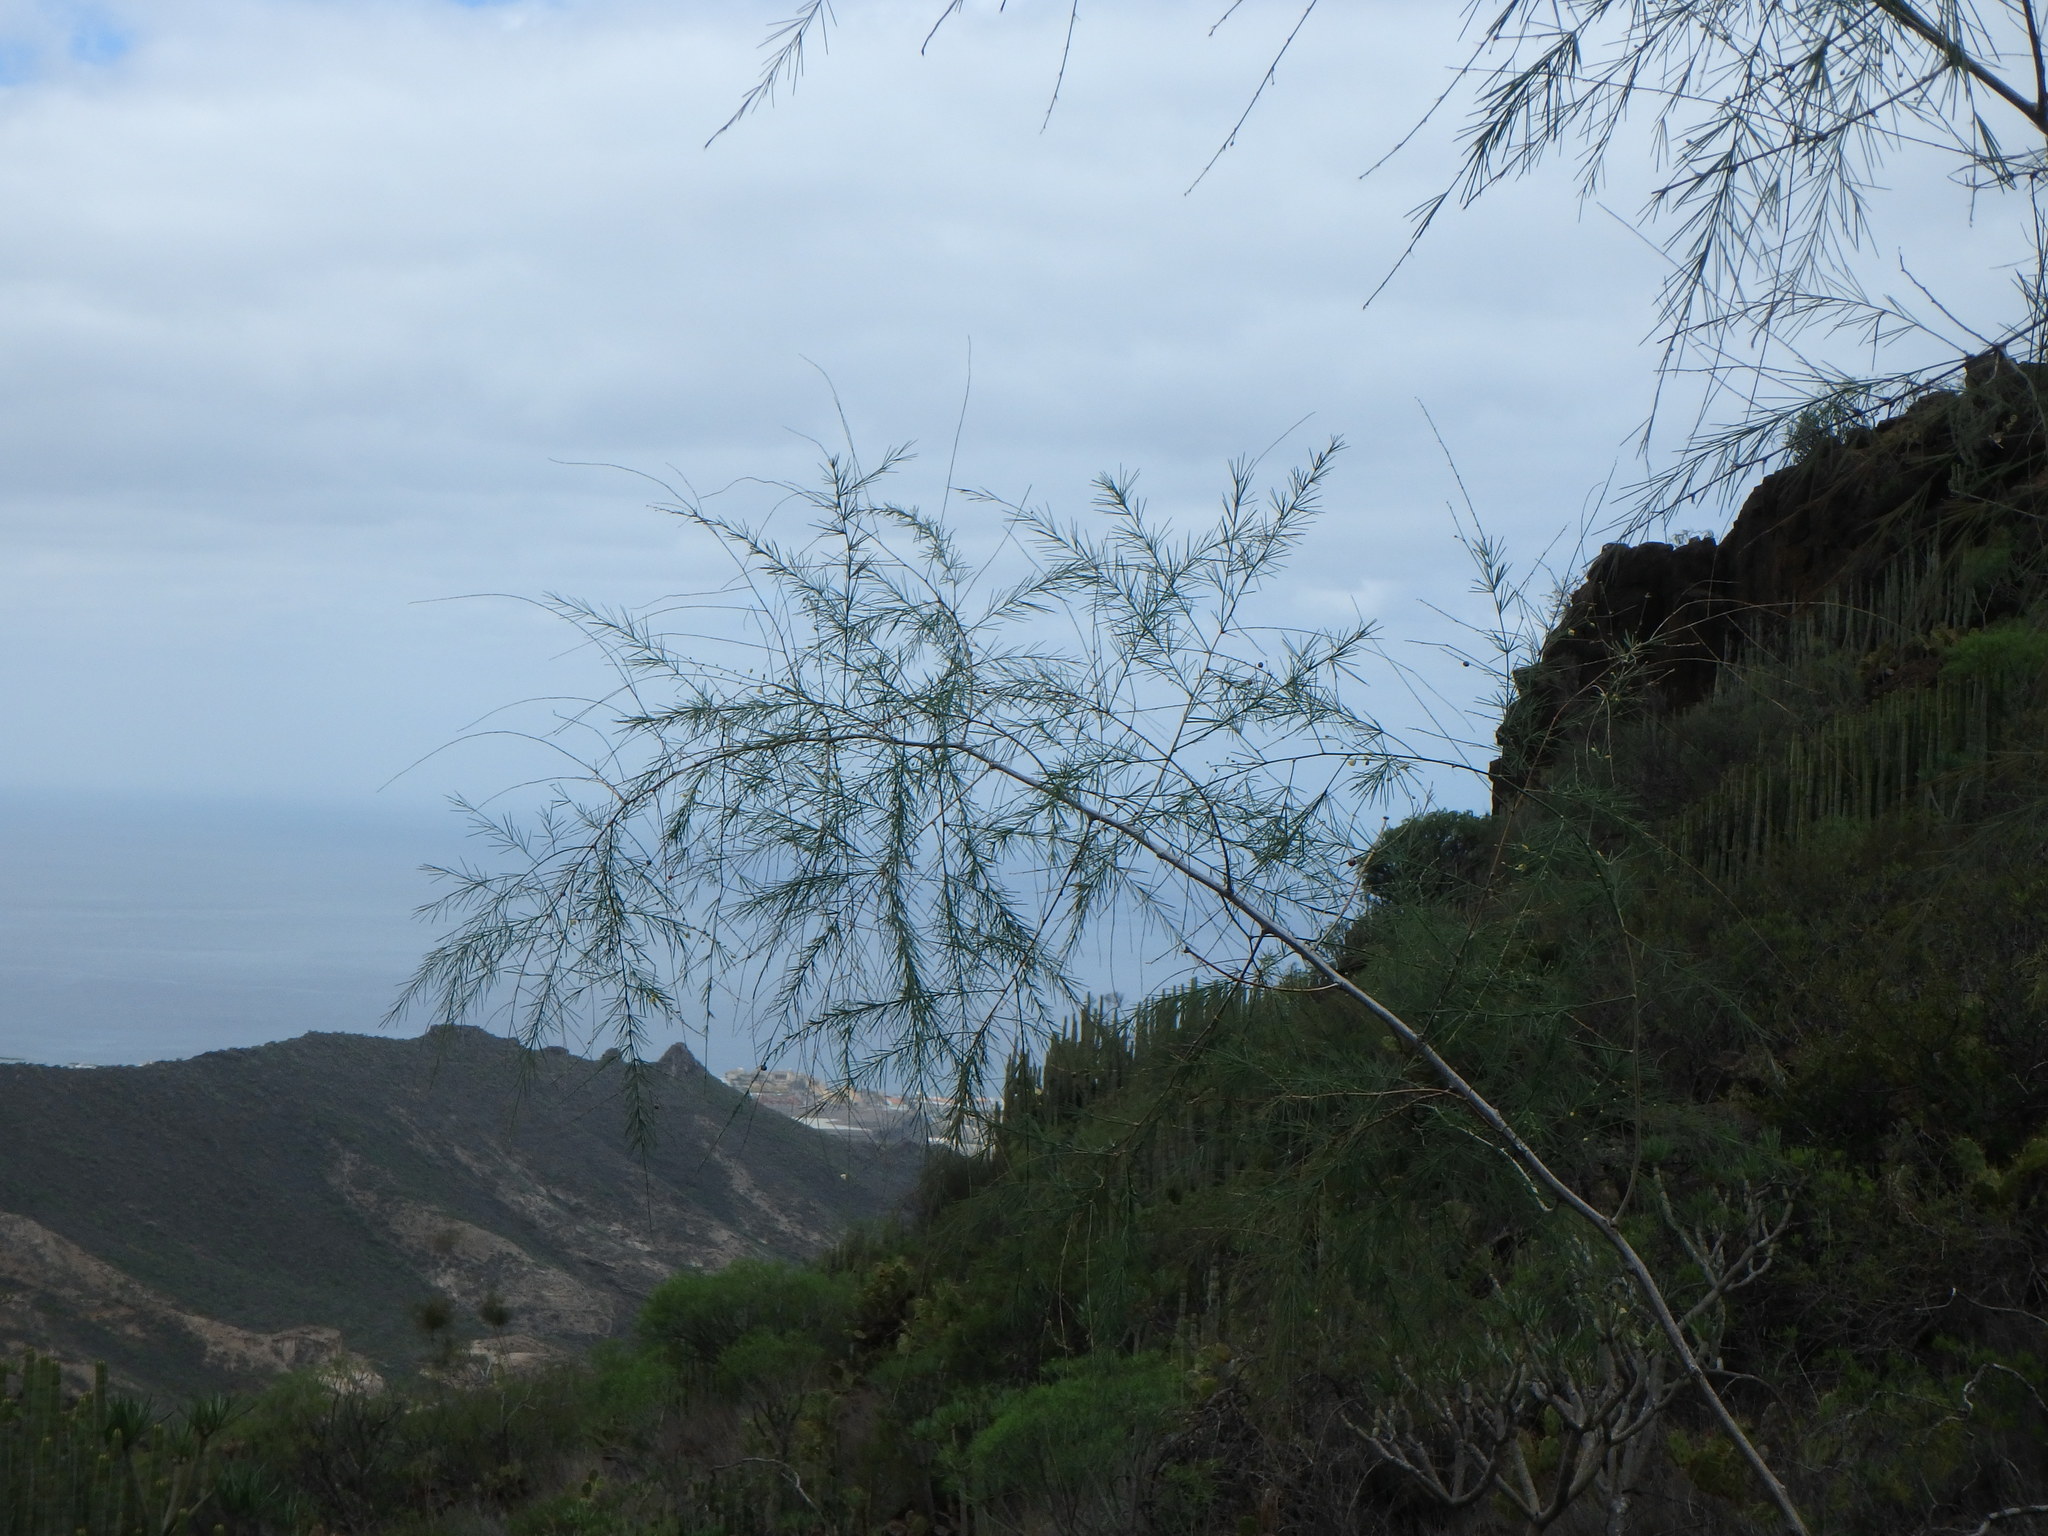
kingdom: Plantae
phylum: Tracheophyta
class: Liliopsida
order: Asparagales
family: Asparagaceae
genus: Asparagus
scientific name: Asparagus plocamoides
